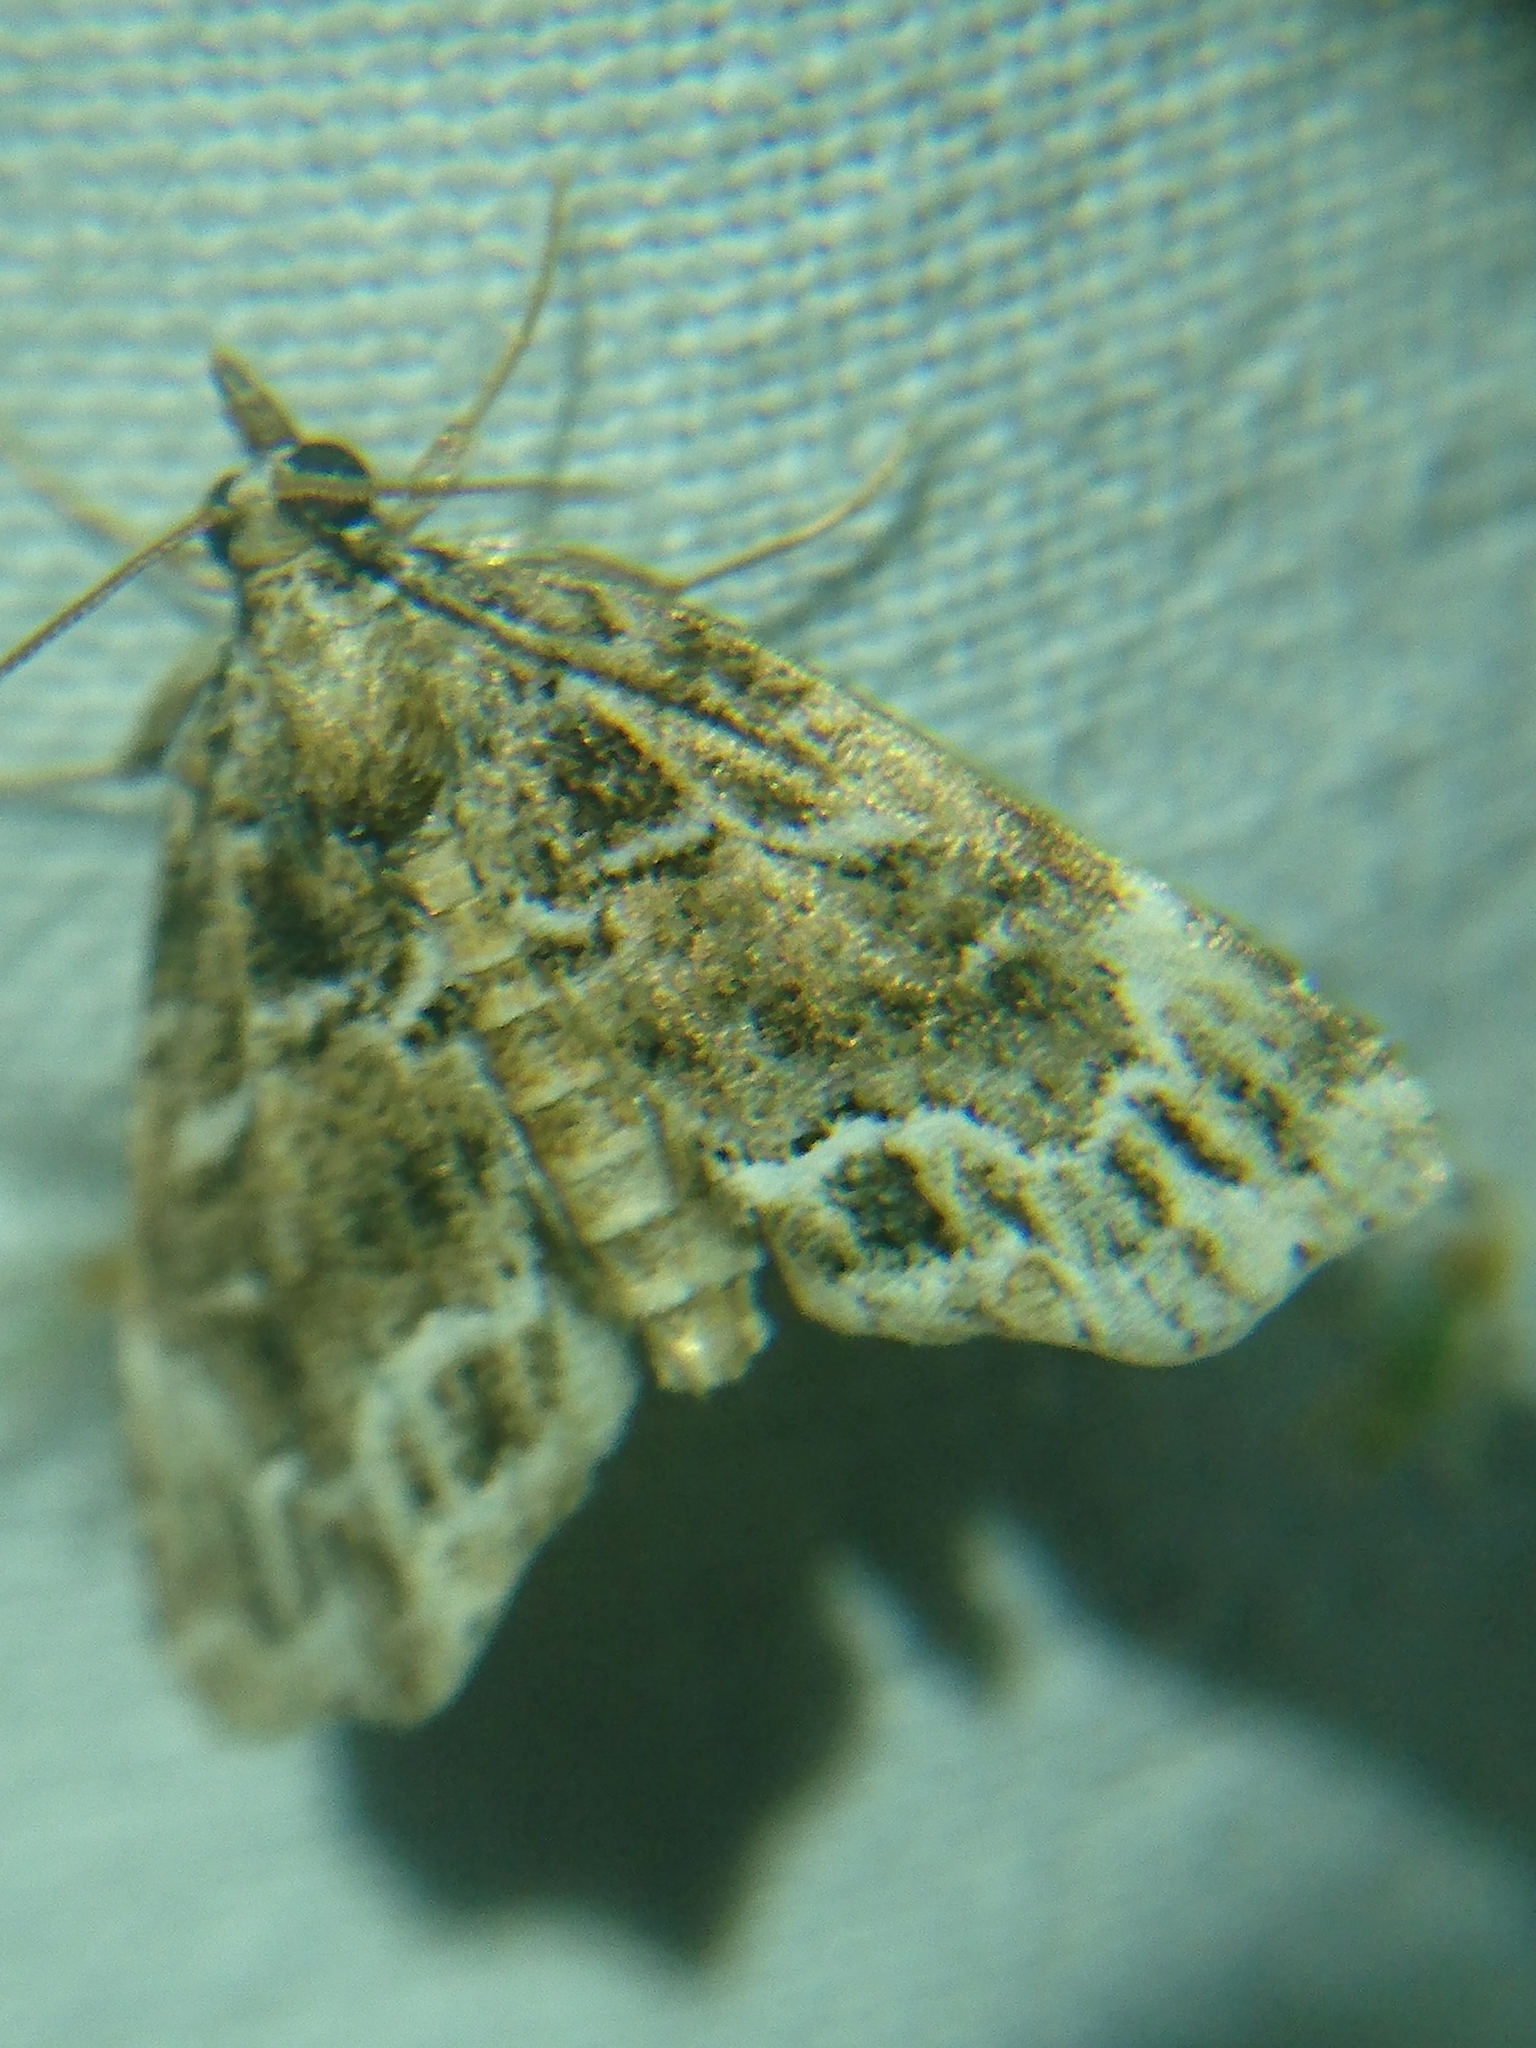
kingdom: Animalia
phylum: Arthropoda
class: Insecta
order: Lepidoptera
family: Erebidae
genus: Cutina
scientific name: Cutina arcuata
